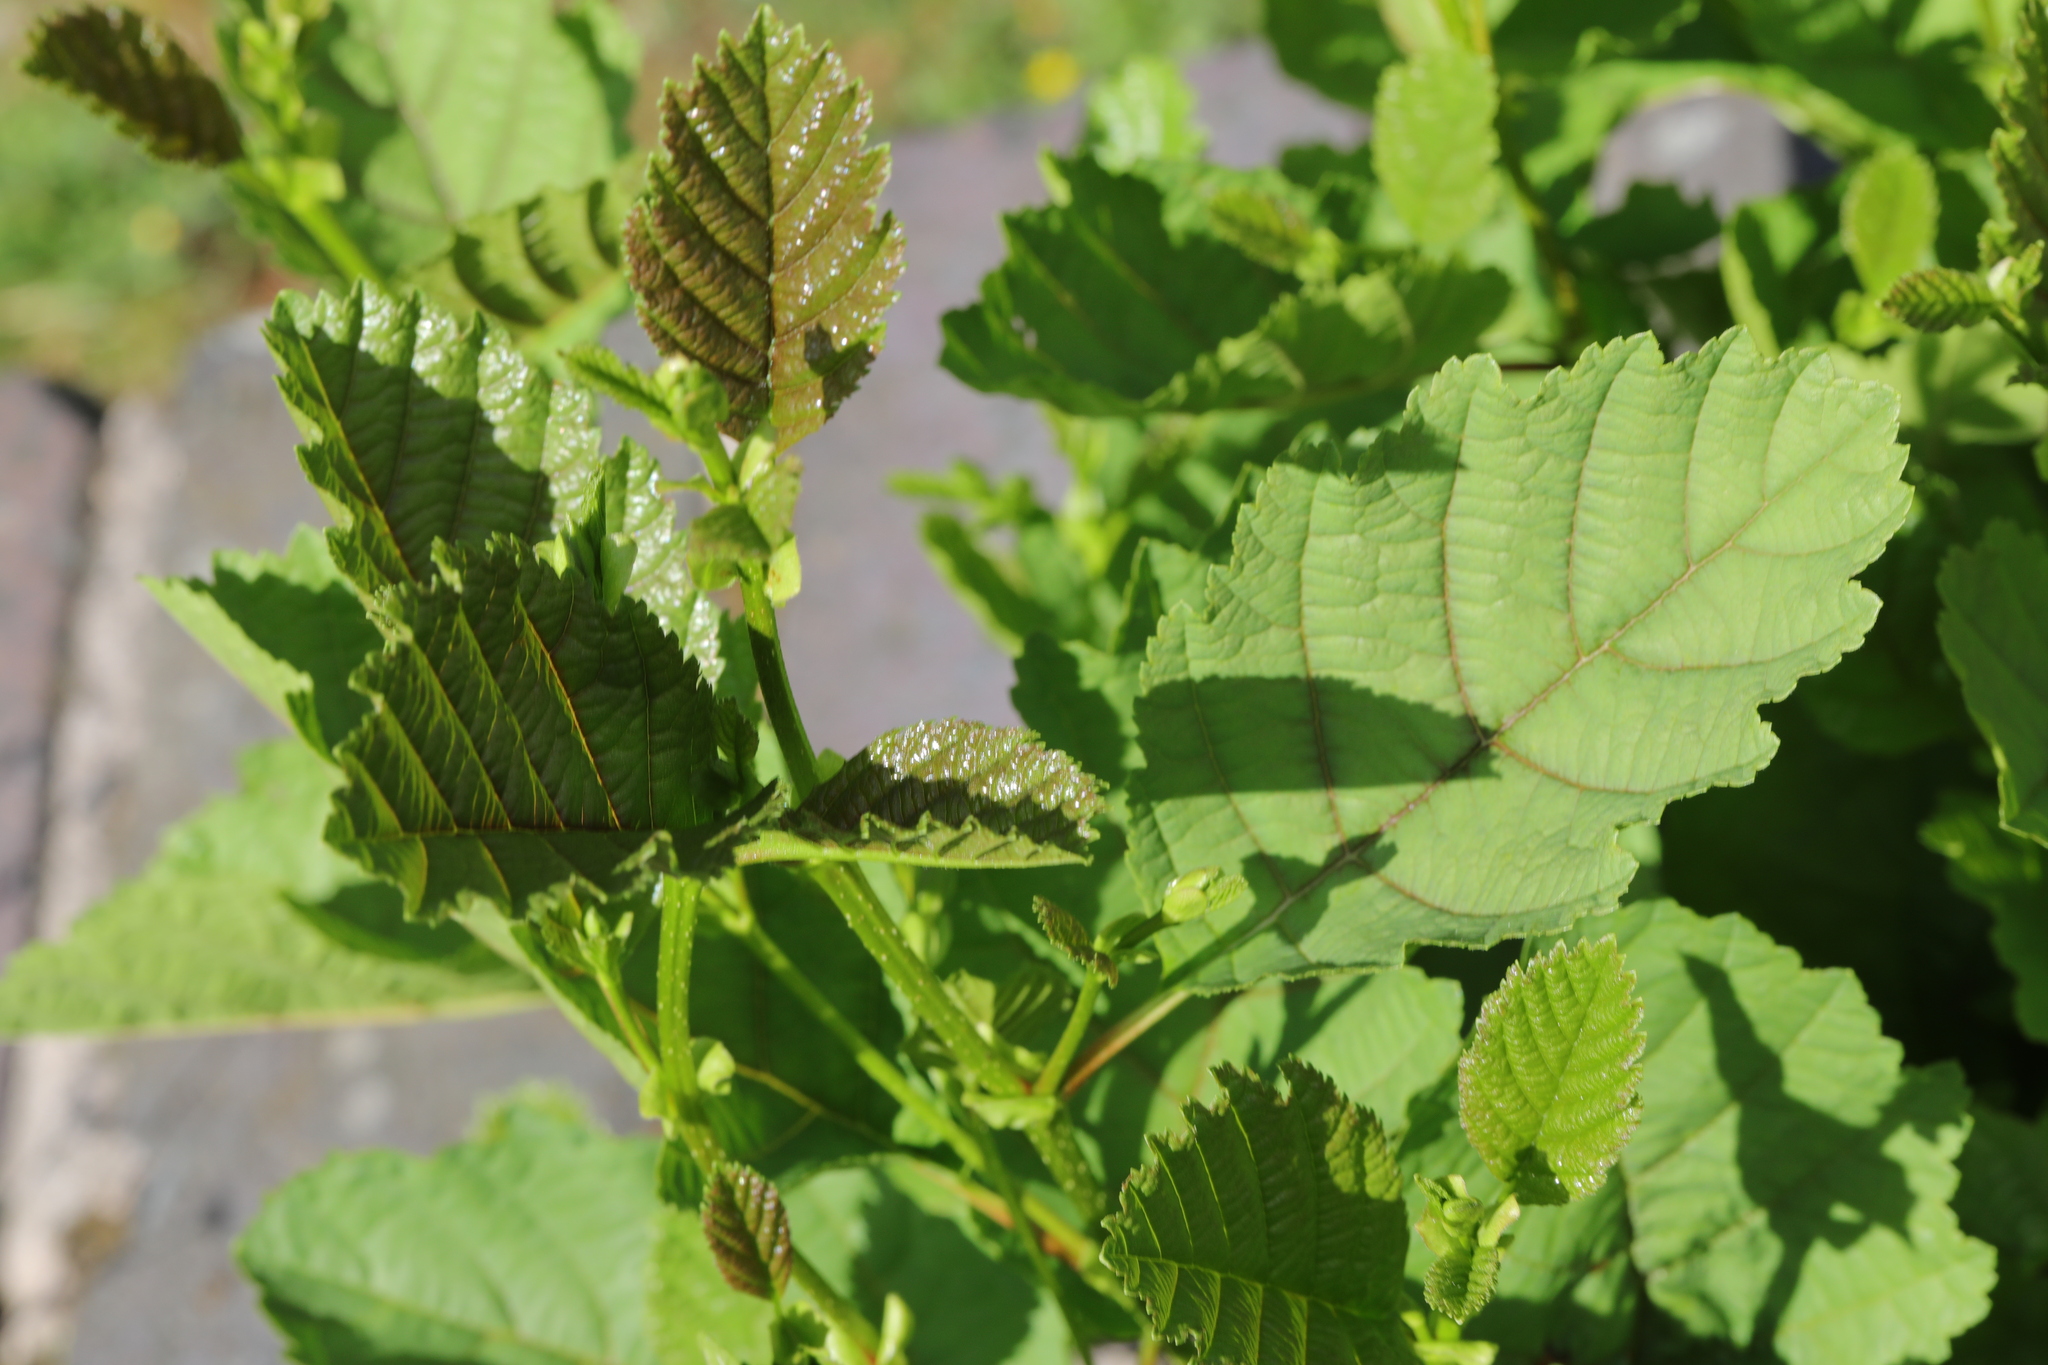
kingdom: Plantae
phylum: Tracheophyta
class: Magnoliopsida
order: Fagales
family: Betulaceae
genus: Alnus
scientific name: Alnus glutinosa
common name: Black alder
